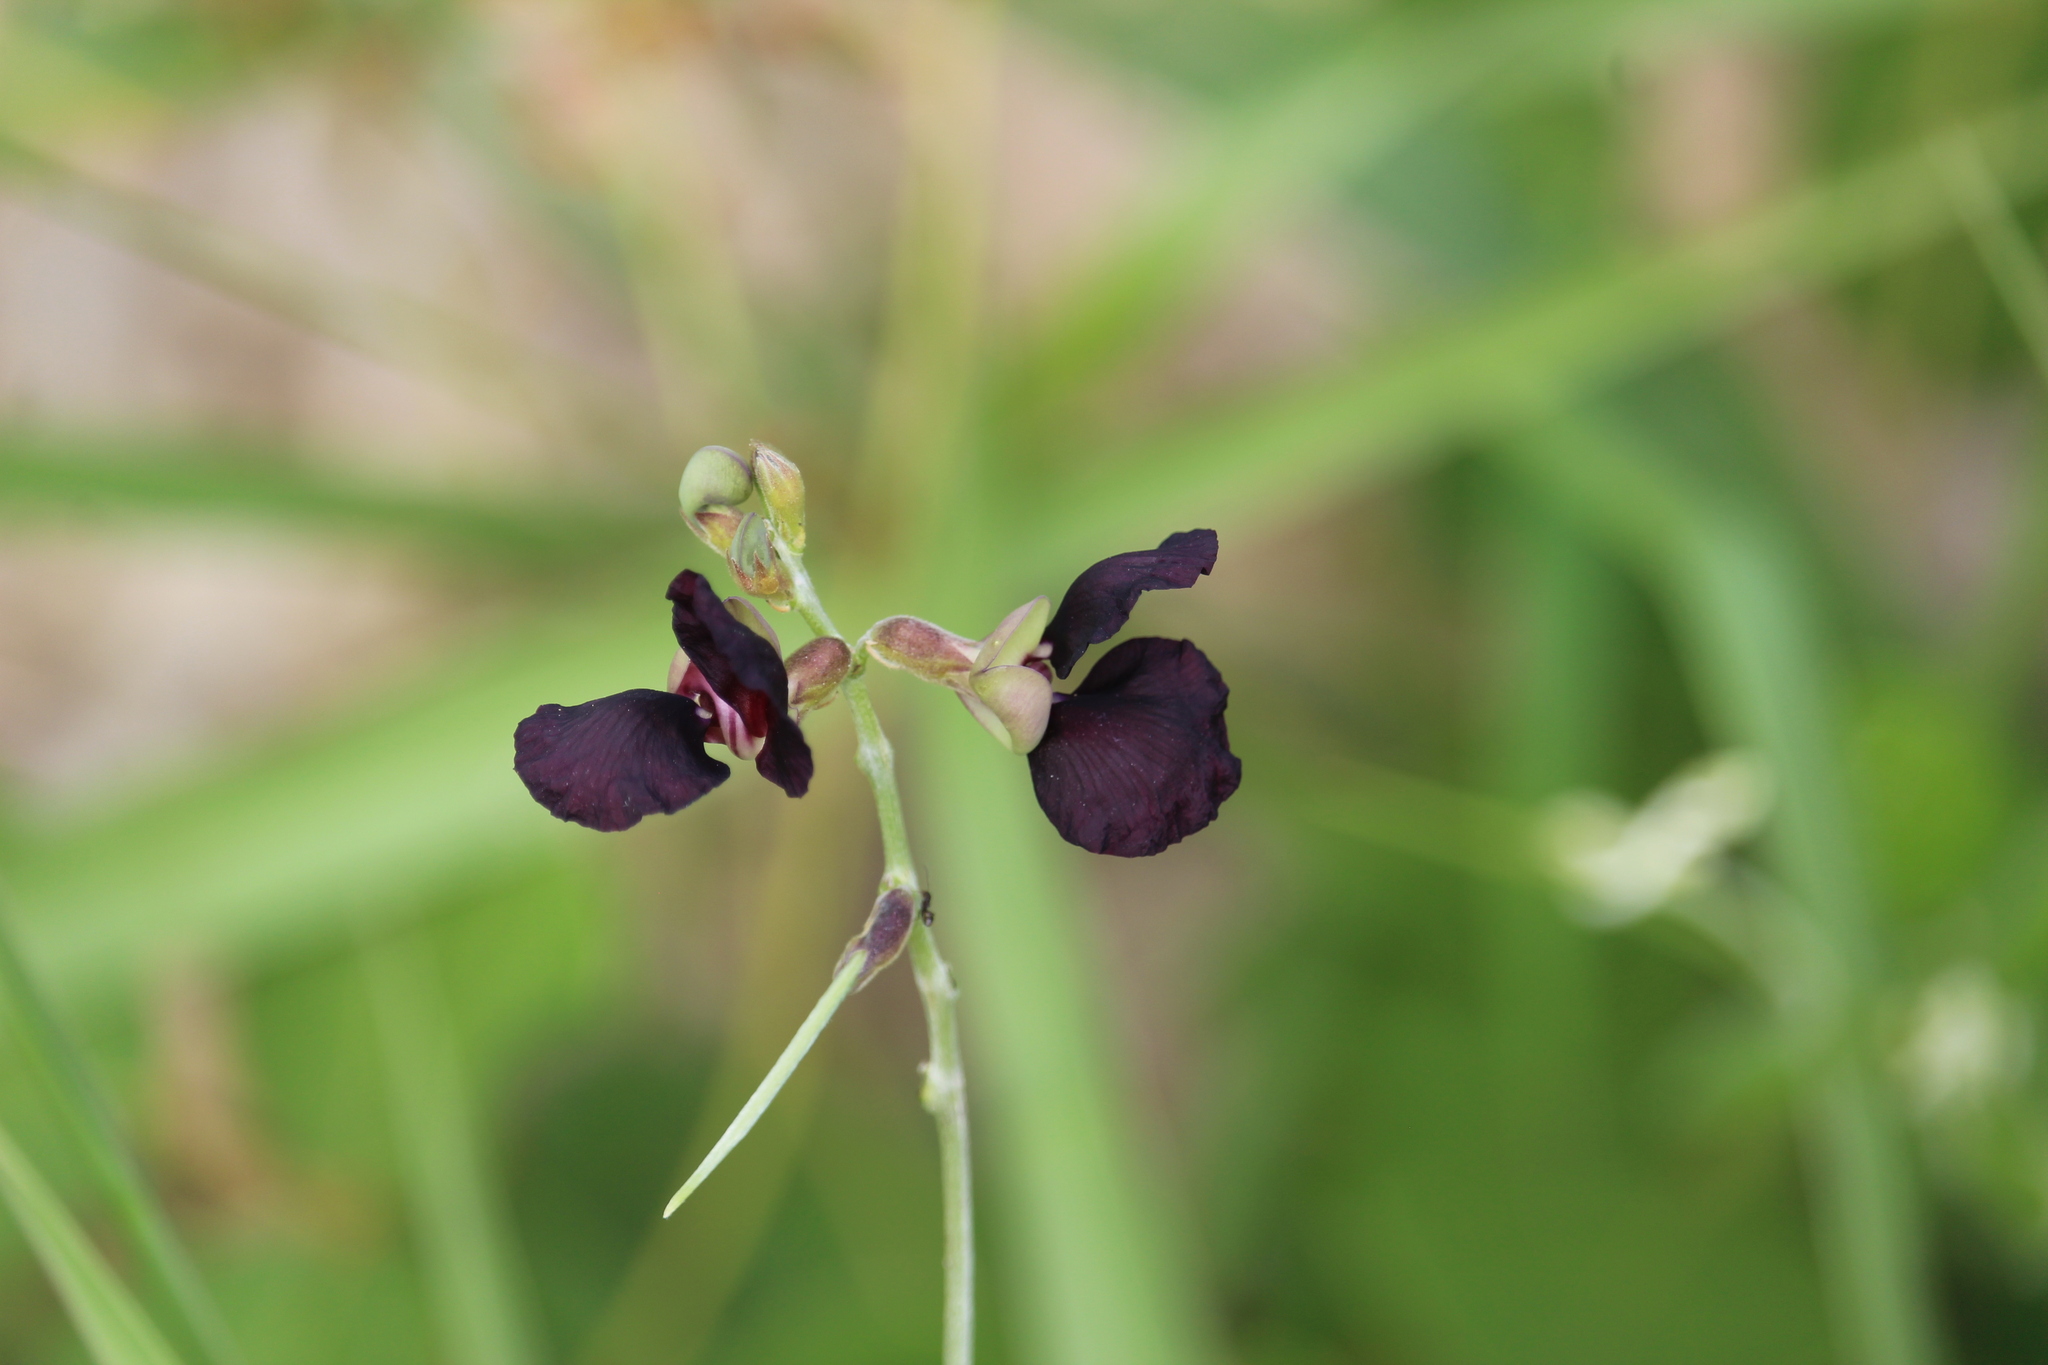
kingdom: Plantae
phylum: Tracheophyta
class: Magnoliopsida
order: Fabales
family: Fabaceae
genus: Macroptilium
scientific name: Macroptilium atropurpureum
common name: Purple bushbean
